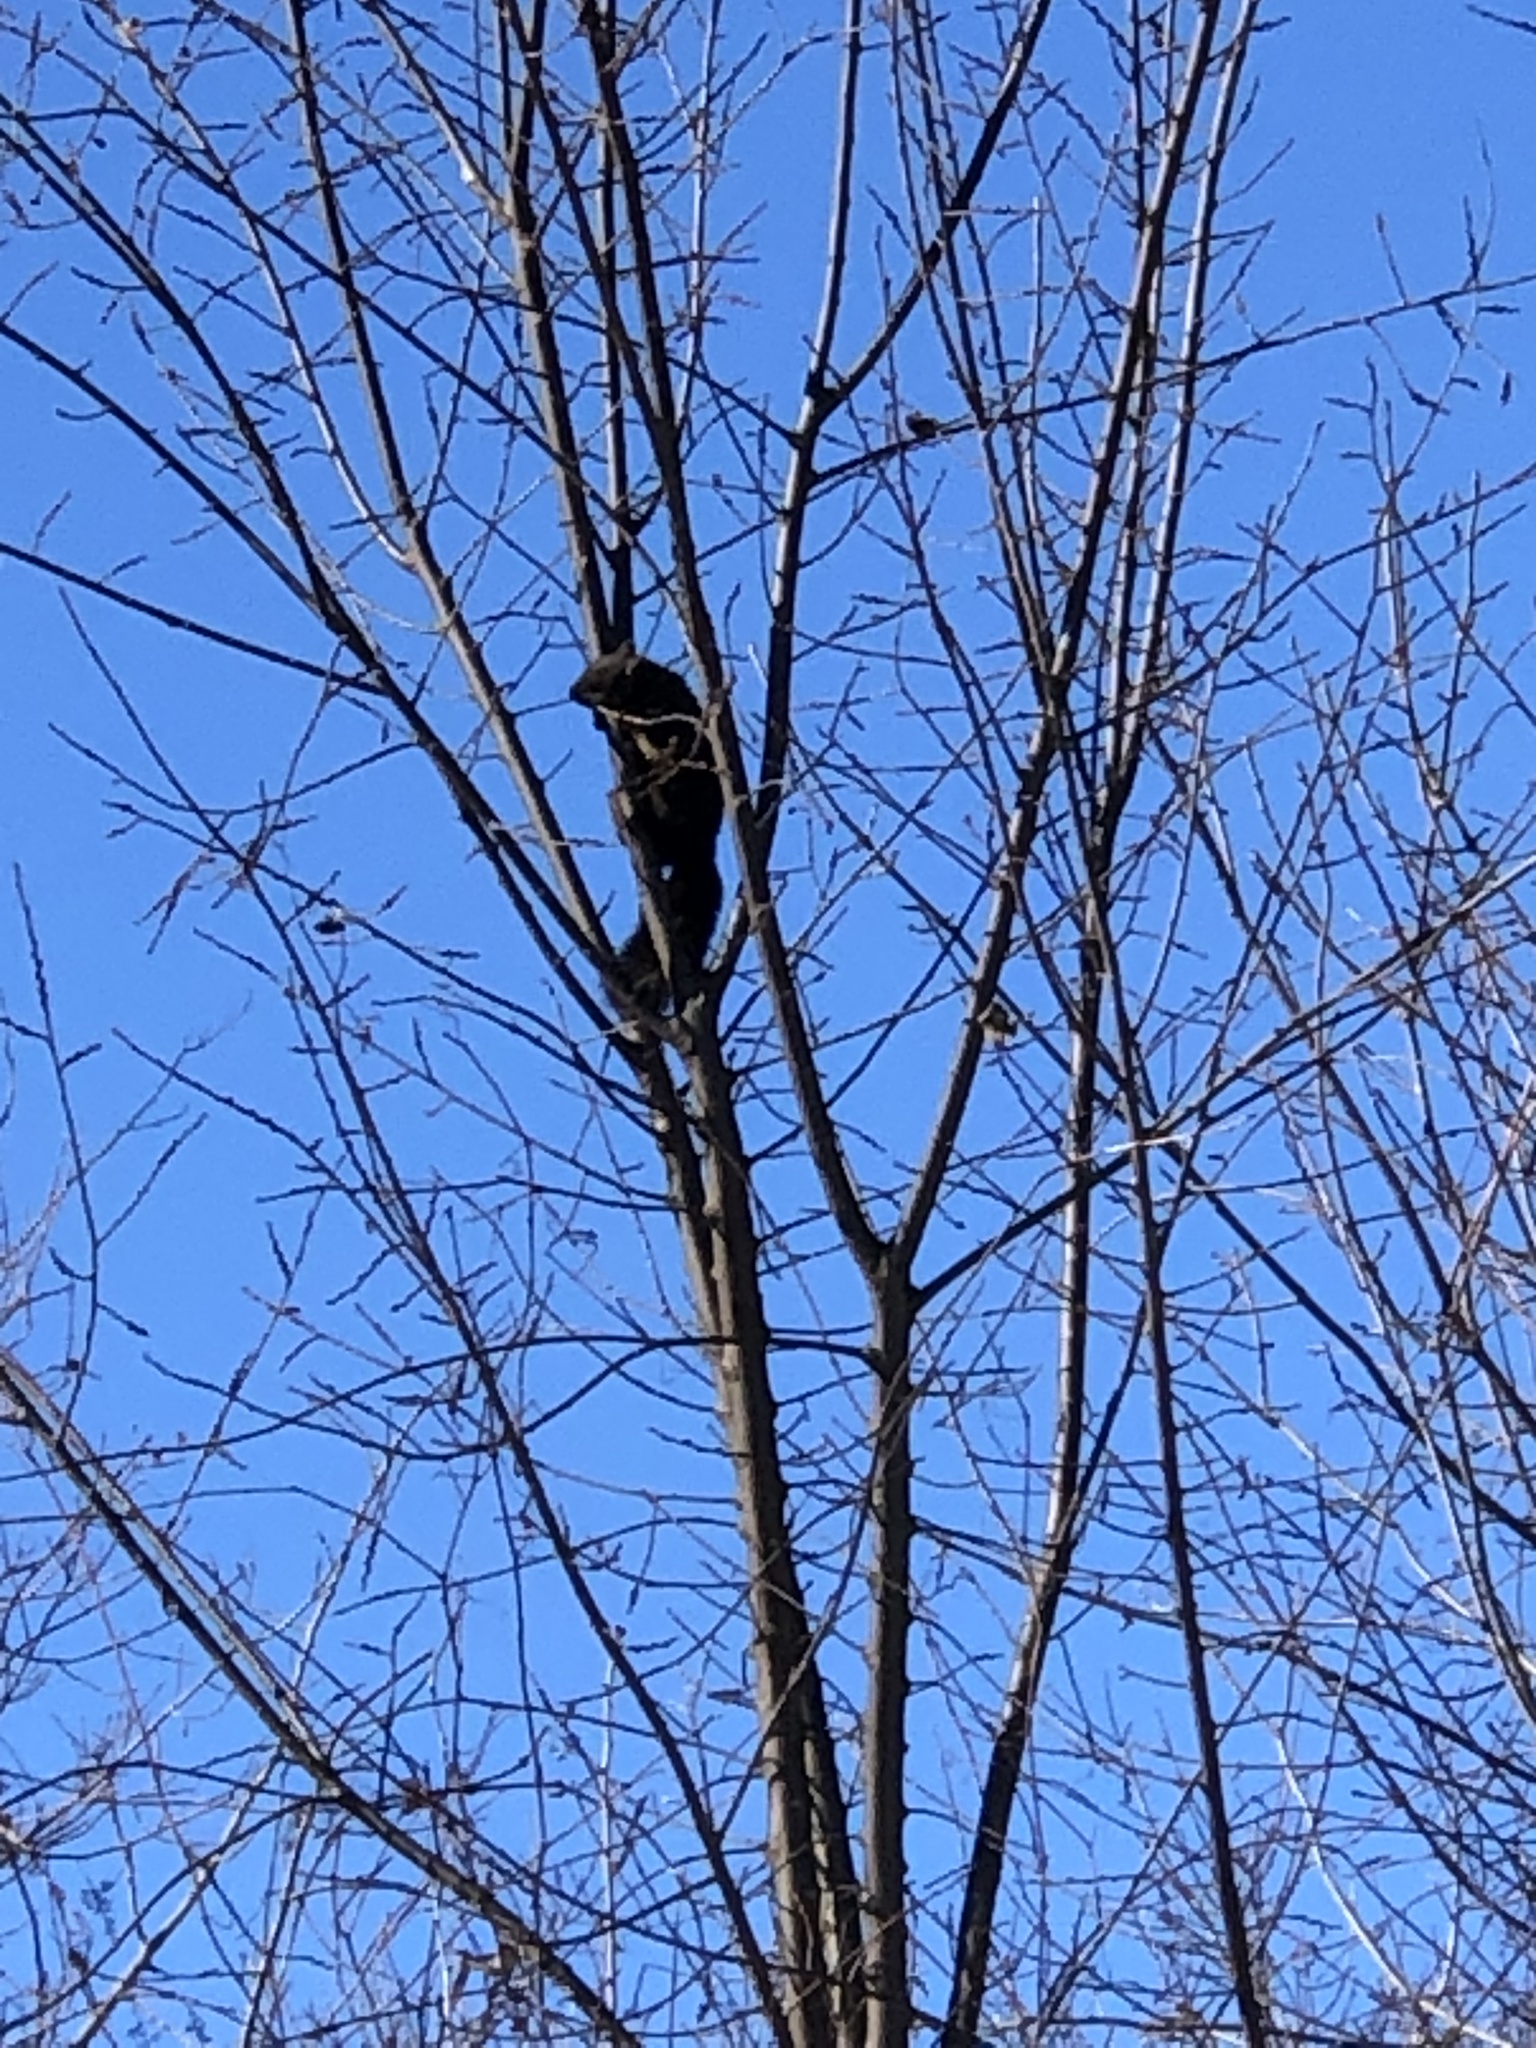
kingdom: Animalia
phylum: Chordata
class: Mammalia
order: Rodentia
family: Sciuridae
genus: Sciurus
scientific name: Sciurus carolinensis
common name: Eastern gray squirrel
